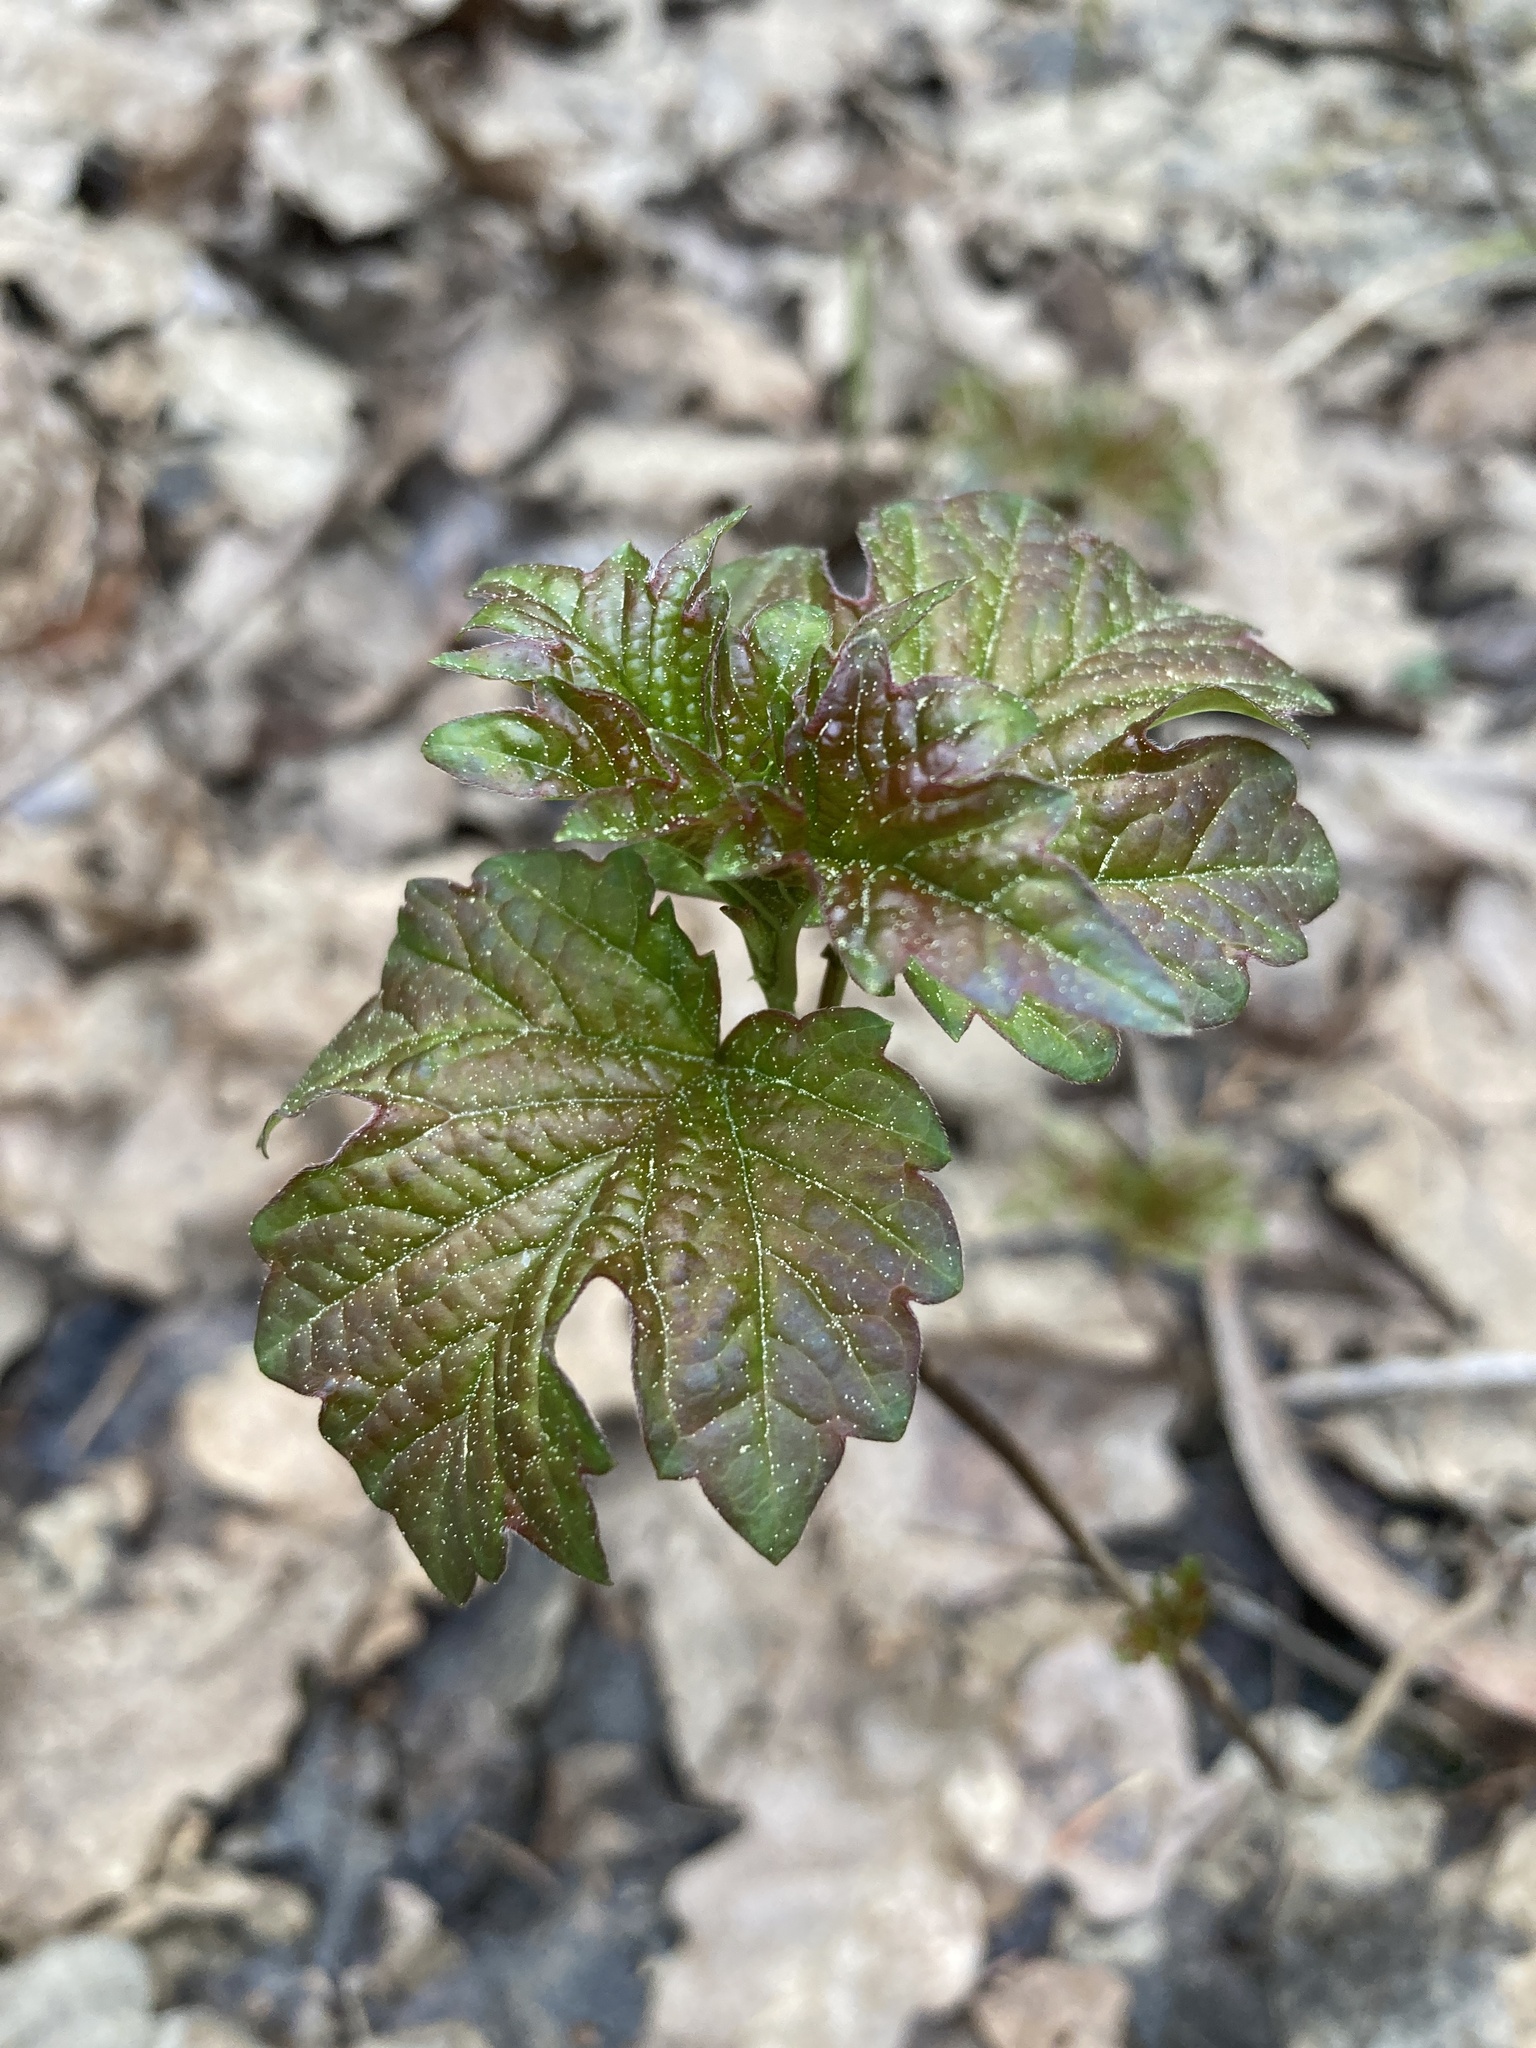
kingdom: Plantae
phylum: Tracheophyta
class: Magnoliopsida
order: Dipsacales
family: Viburnaceae
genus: Viburnum
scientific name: Viburnum opulus
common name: Guelder-rose
